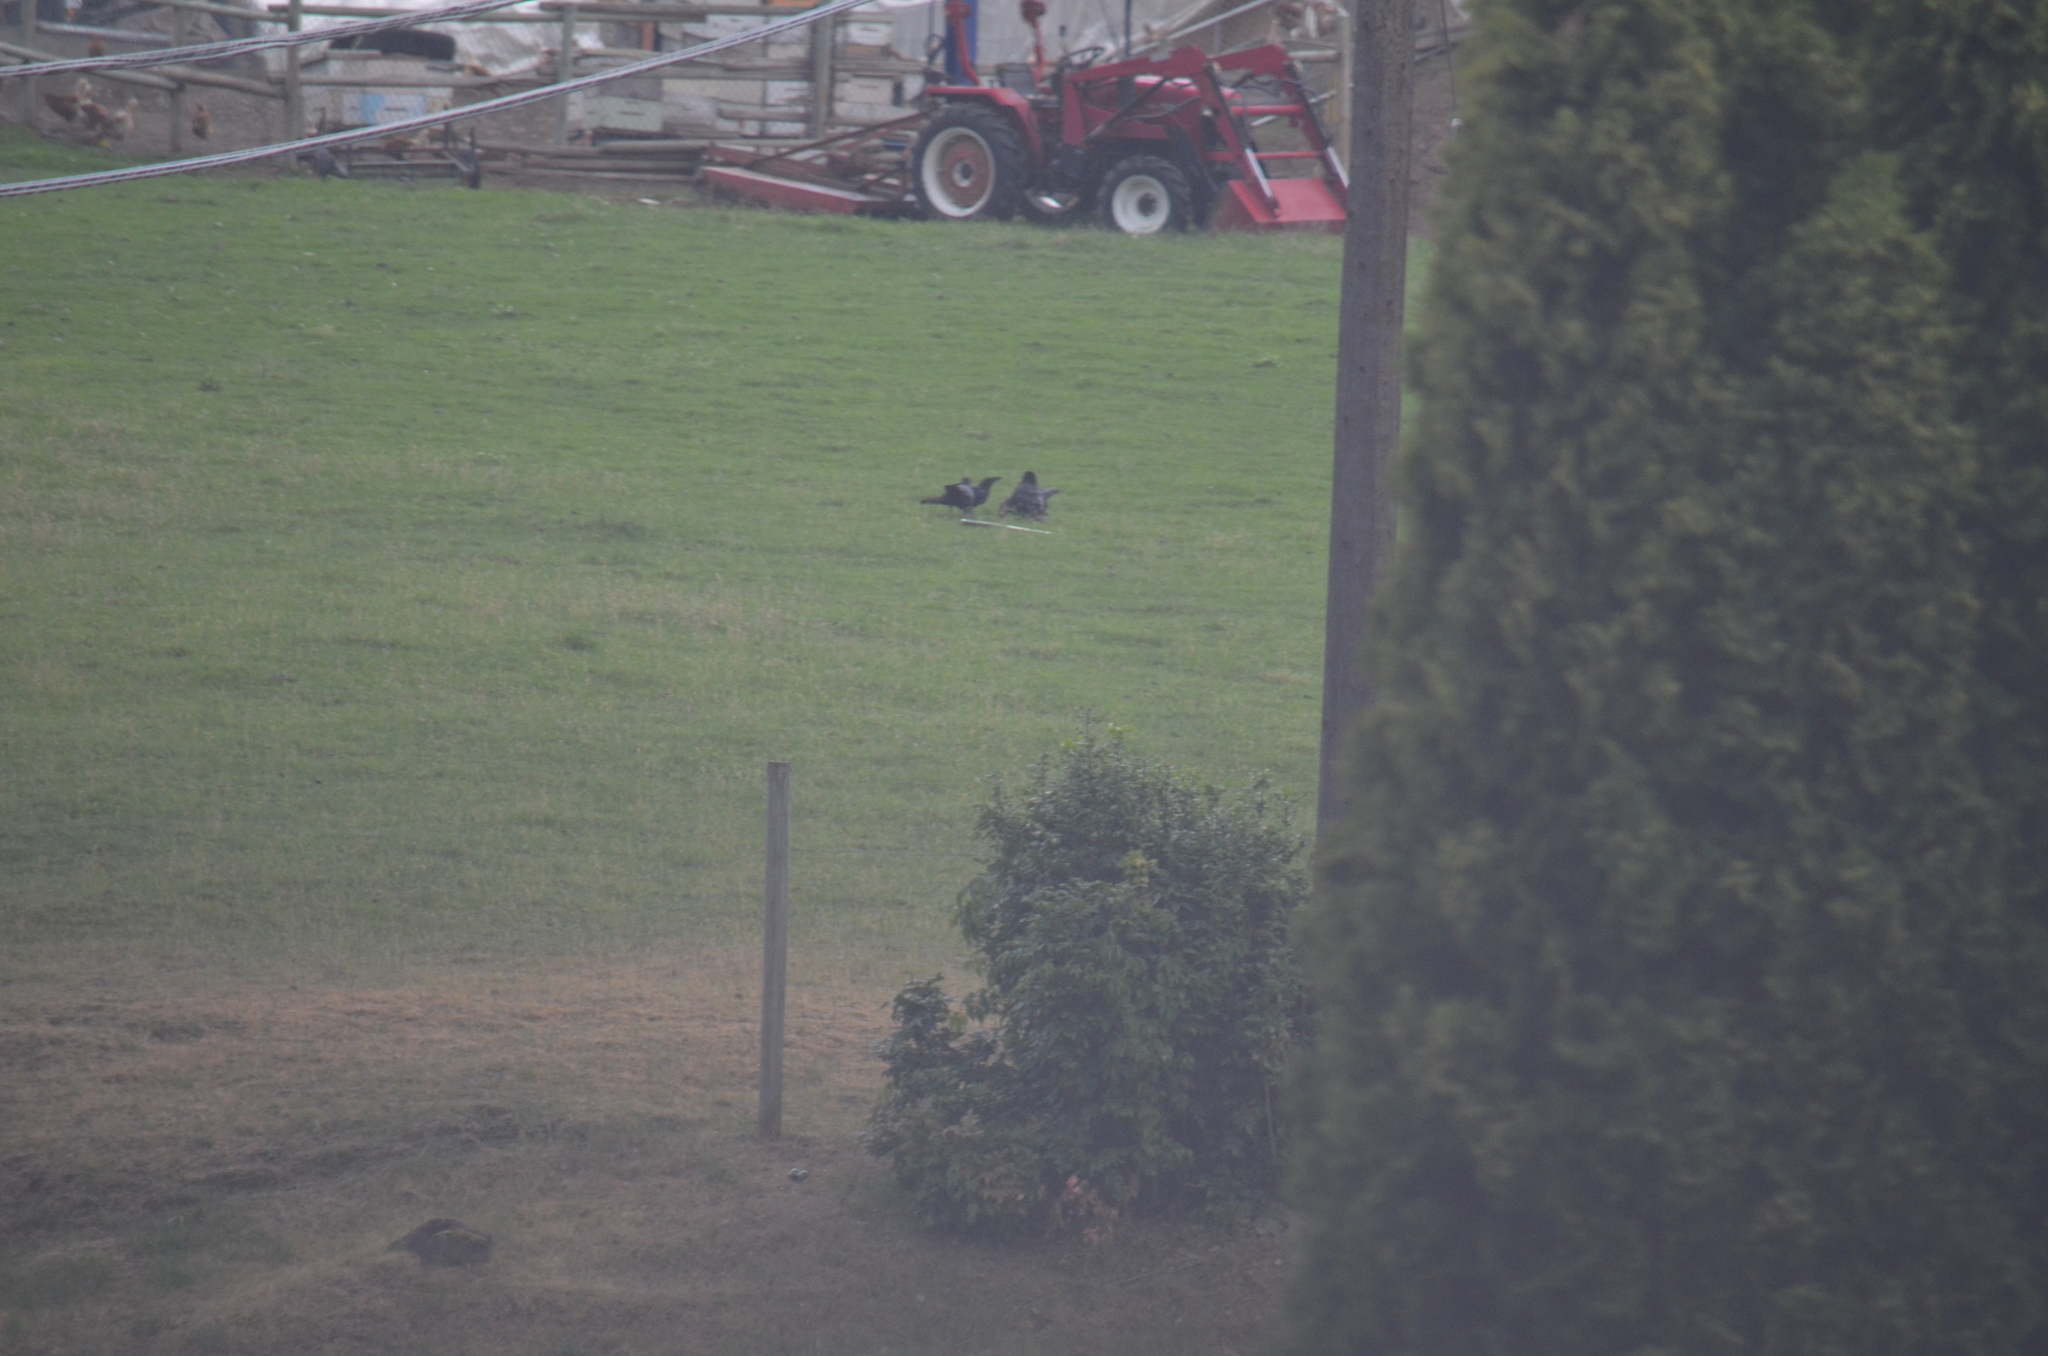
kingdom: Animalia
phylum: Chordata
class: Aves
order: Passeriformes
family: Corvidae
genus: Corvus
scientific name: Corvus corax
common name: Common raven
